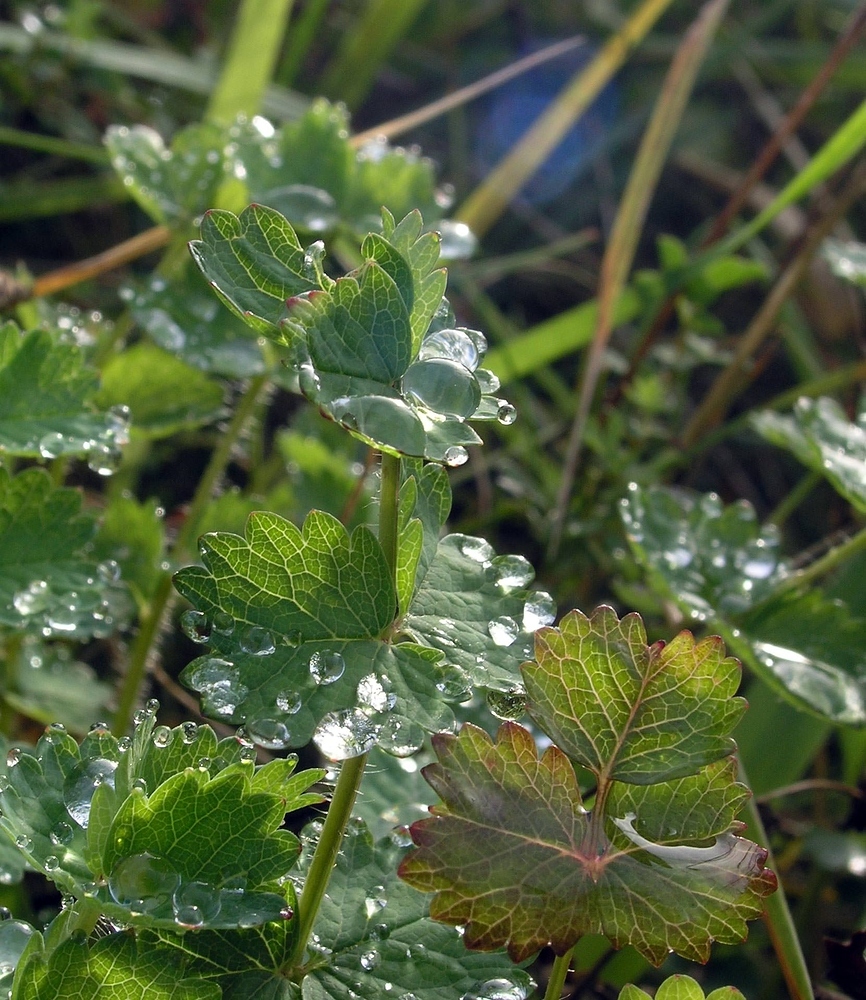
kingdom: Plantae
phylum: Tracheophyta
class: Magnoliopsida
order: Rosales
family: Rosaceae
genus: Poterium
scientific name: Poterium sanguisorba
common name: Salad burnet
